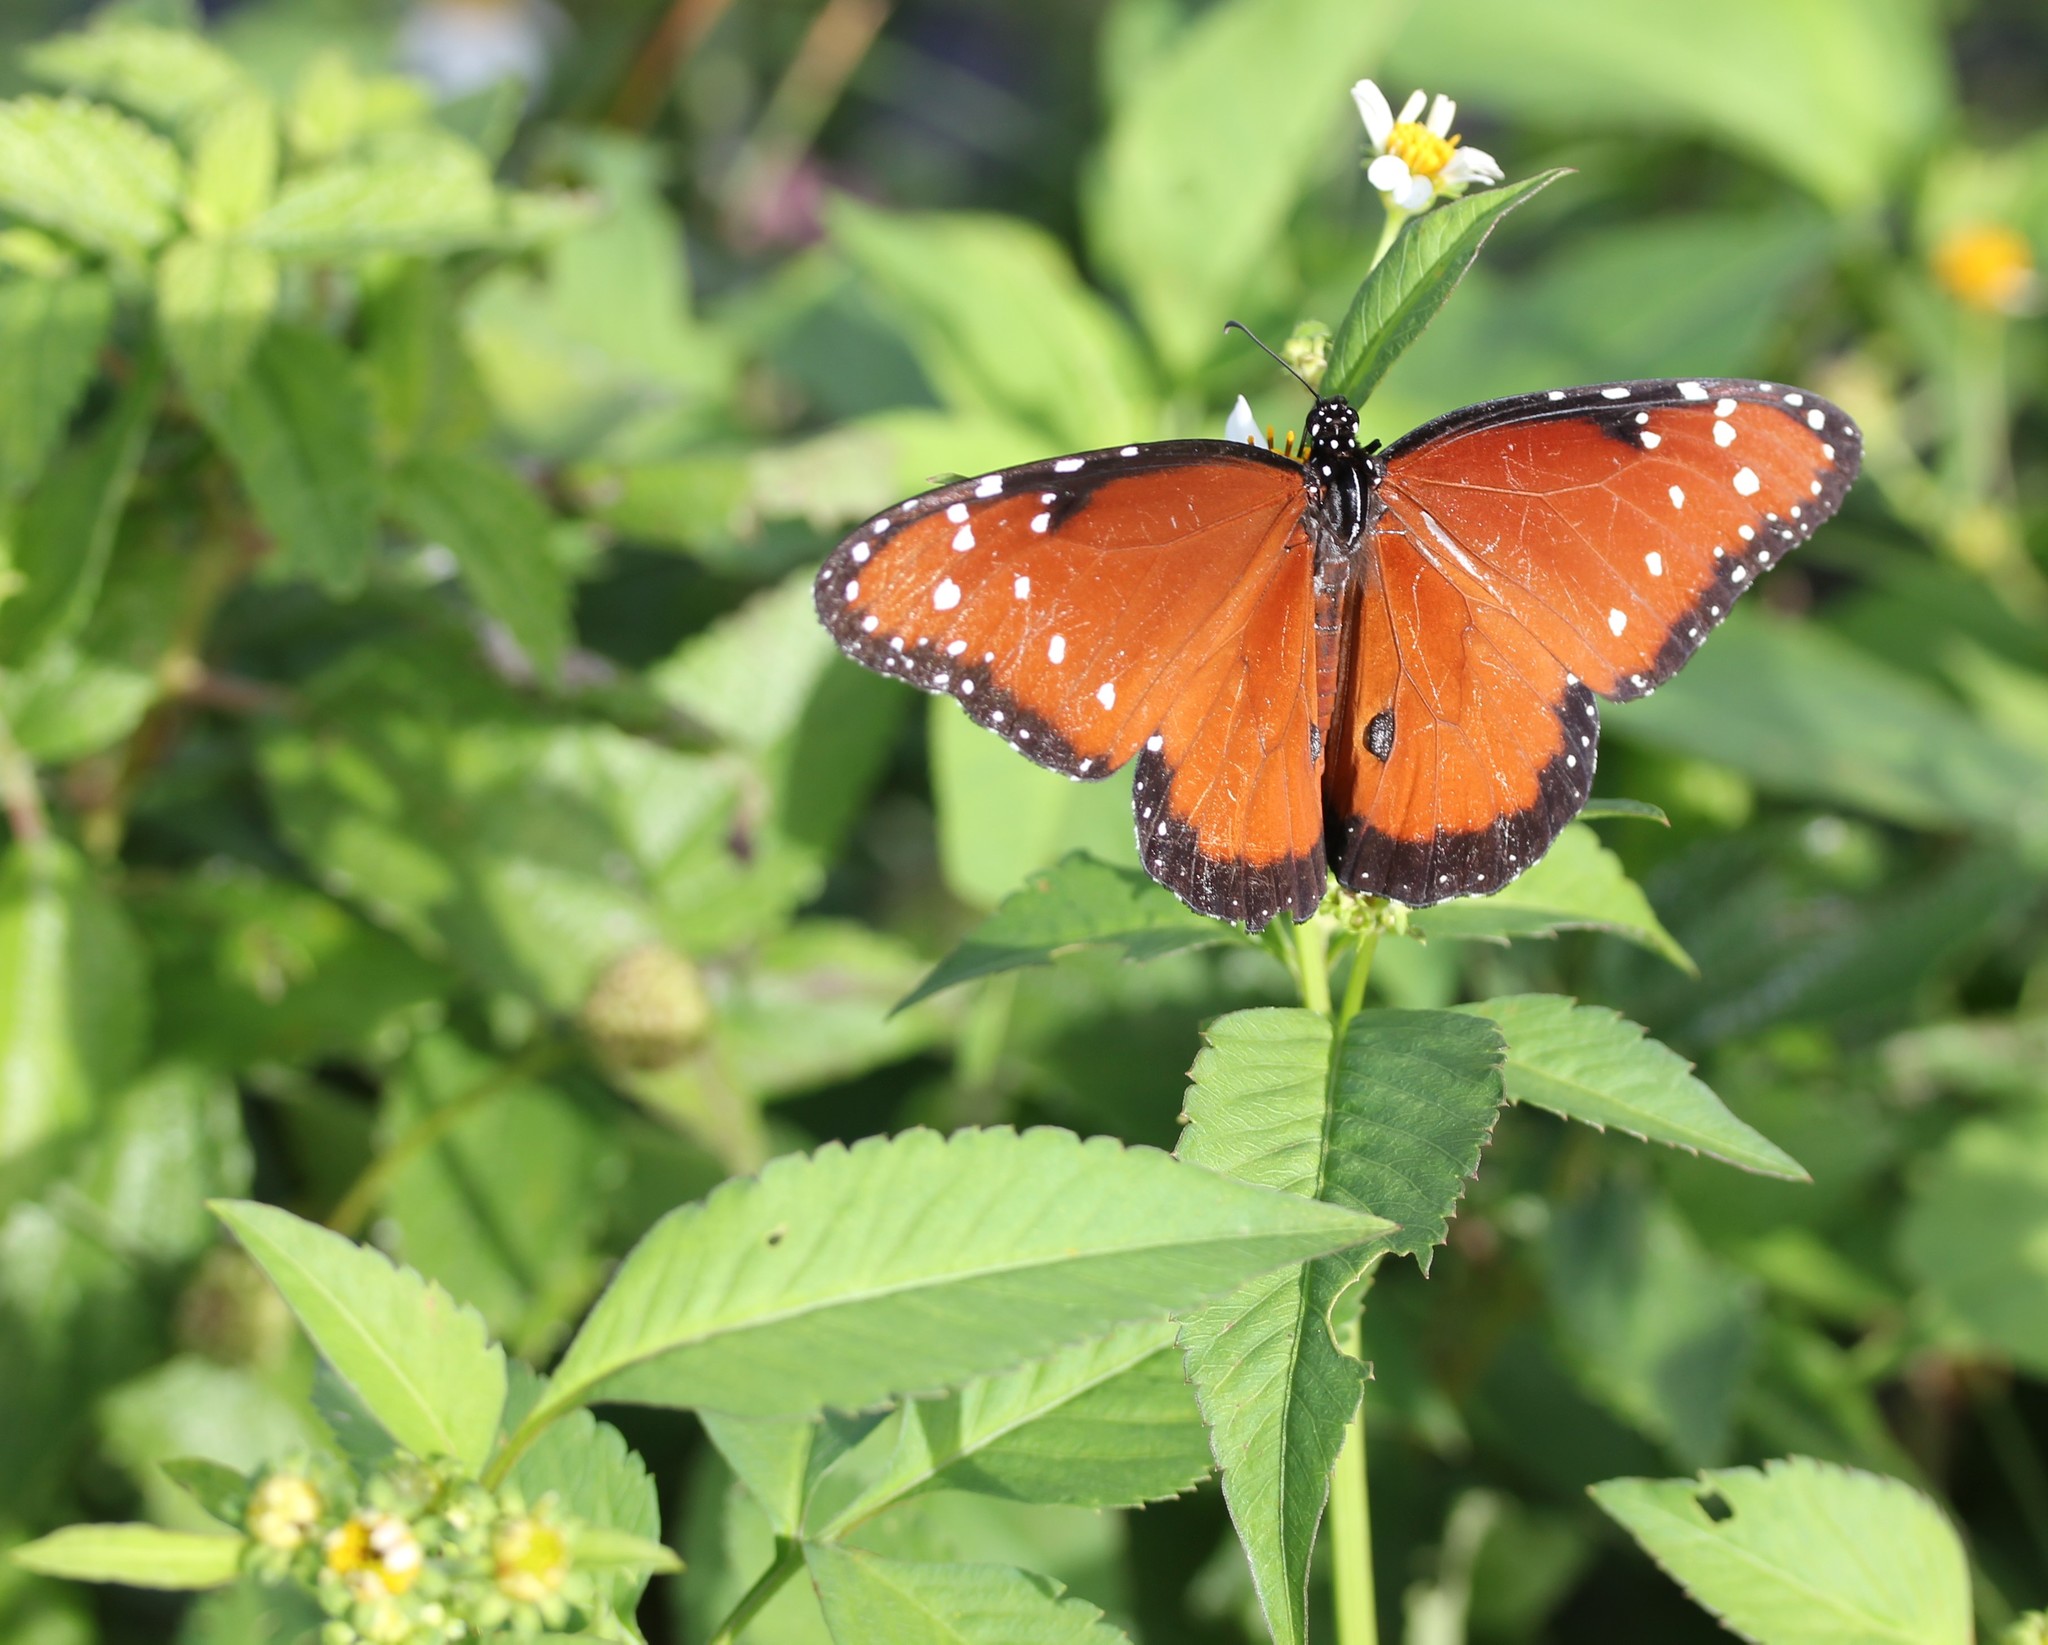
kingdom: Plantae
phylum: Tracheophyta
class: Magnoliopsida
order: Asterales
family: Asteraceae
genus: Bidens
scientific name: Bidens alba
